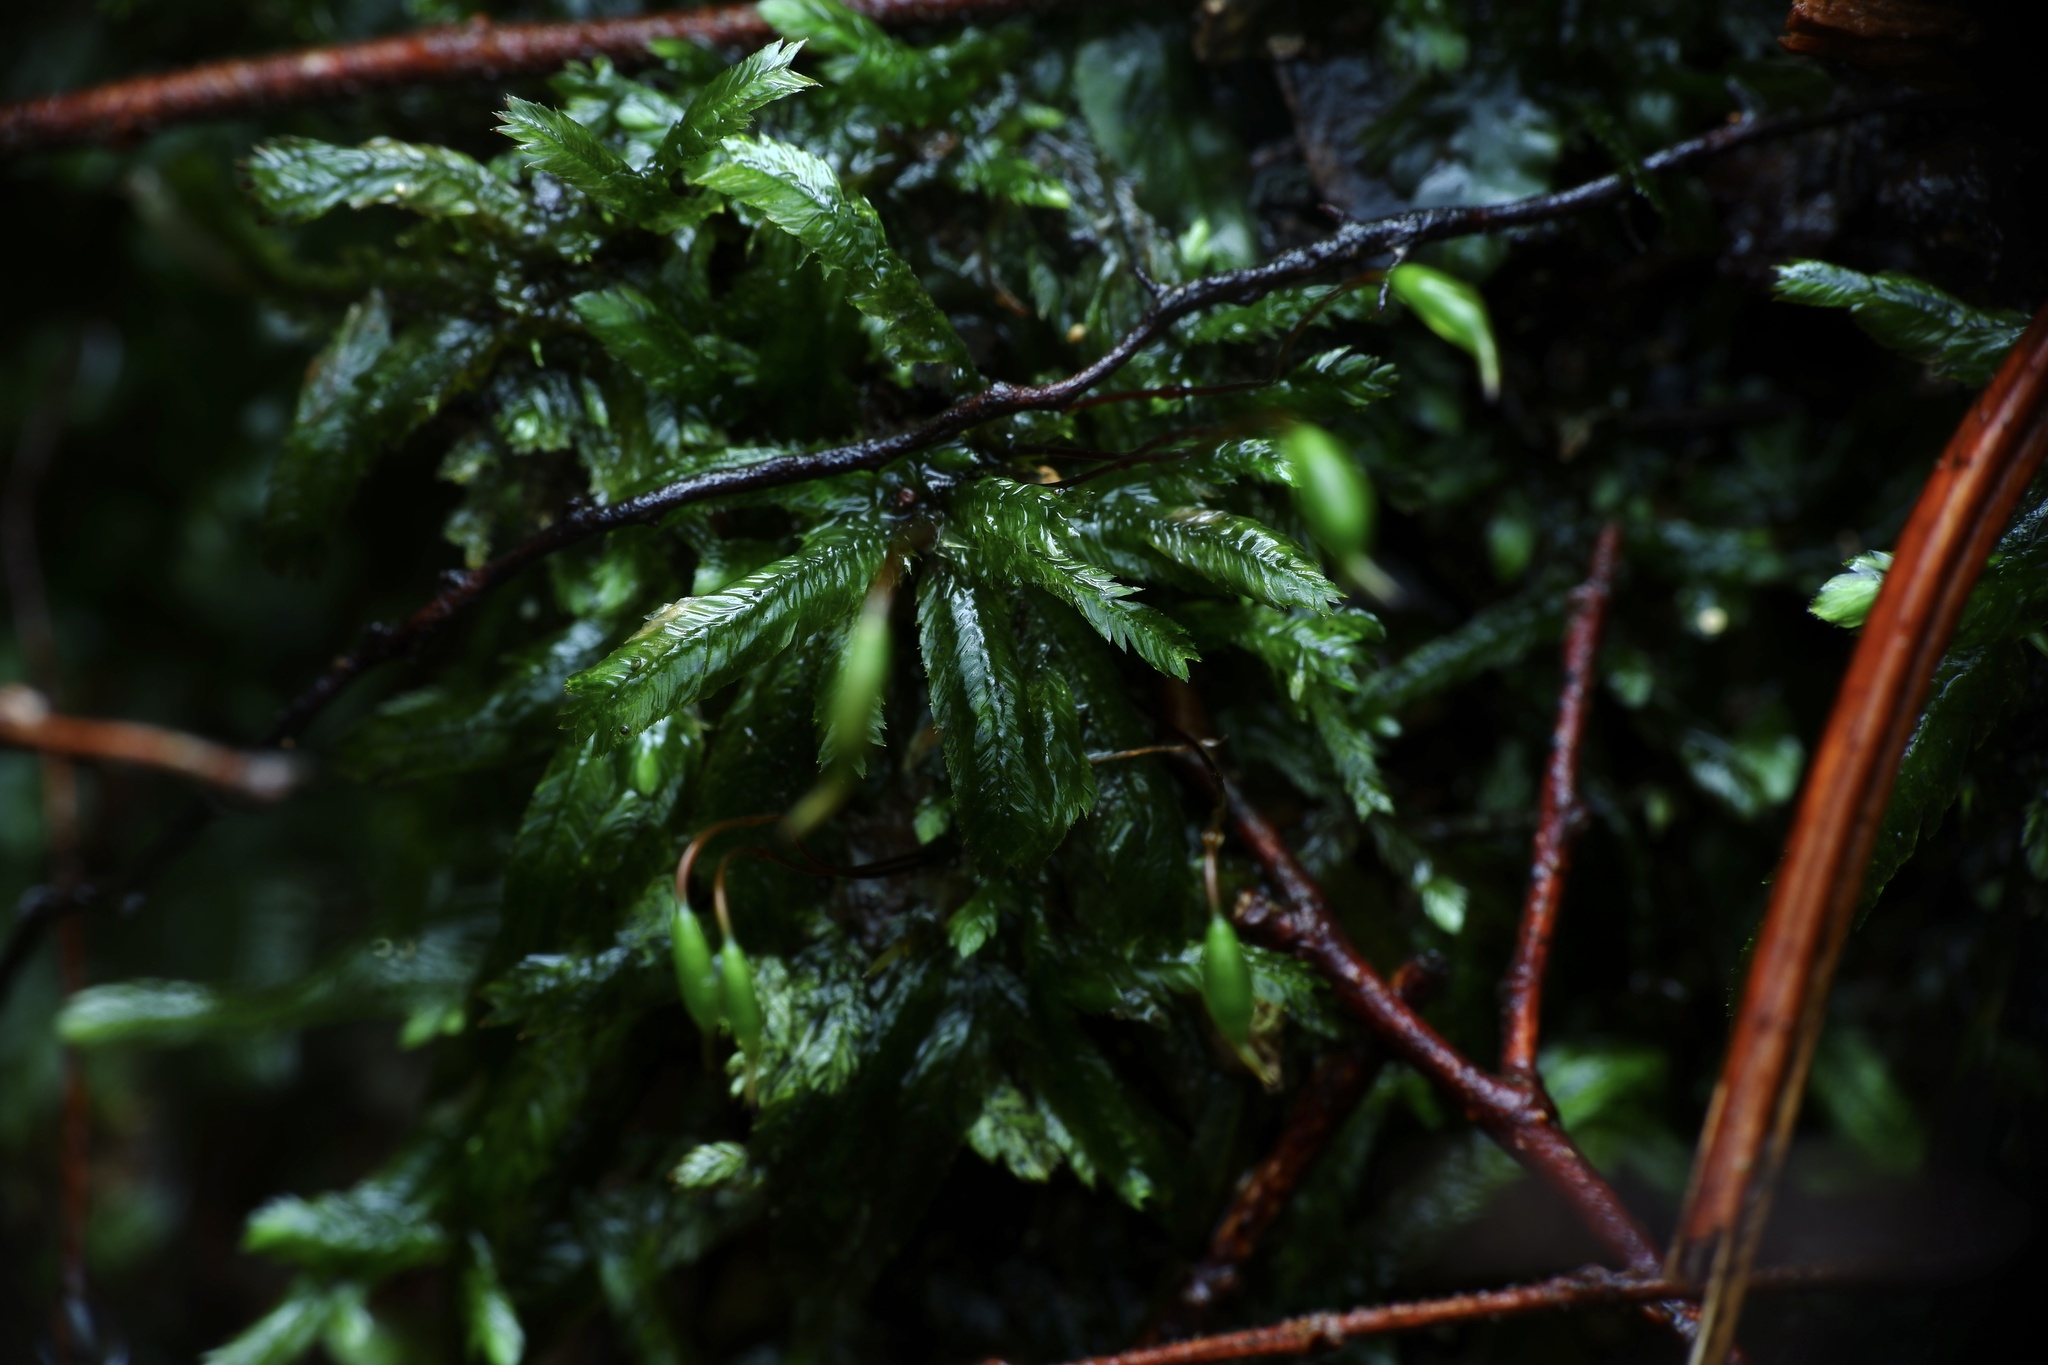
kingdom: Plantae
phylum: Bryophyta
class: Bryopsida
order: Hypnales
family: Catagoniaceae
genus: Catagonium
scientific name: Catagonium nitens
